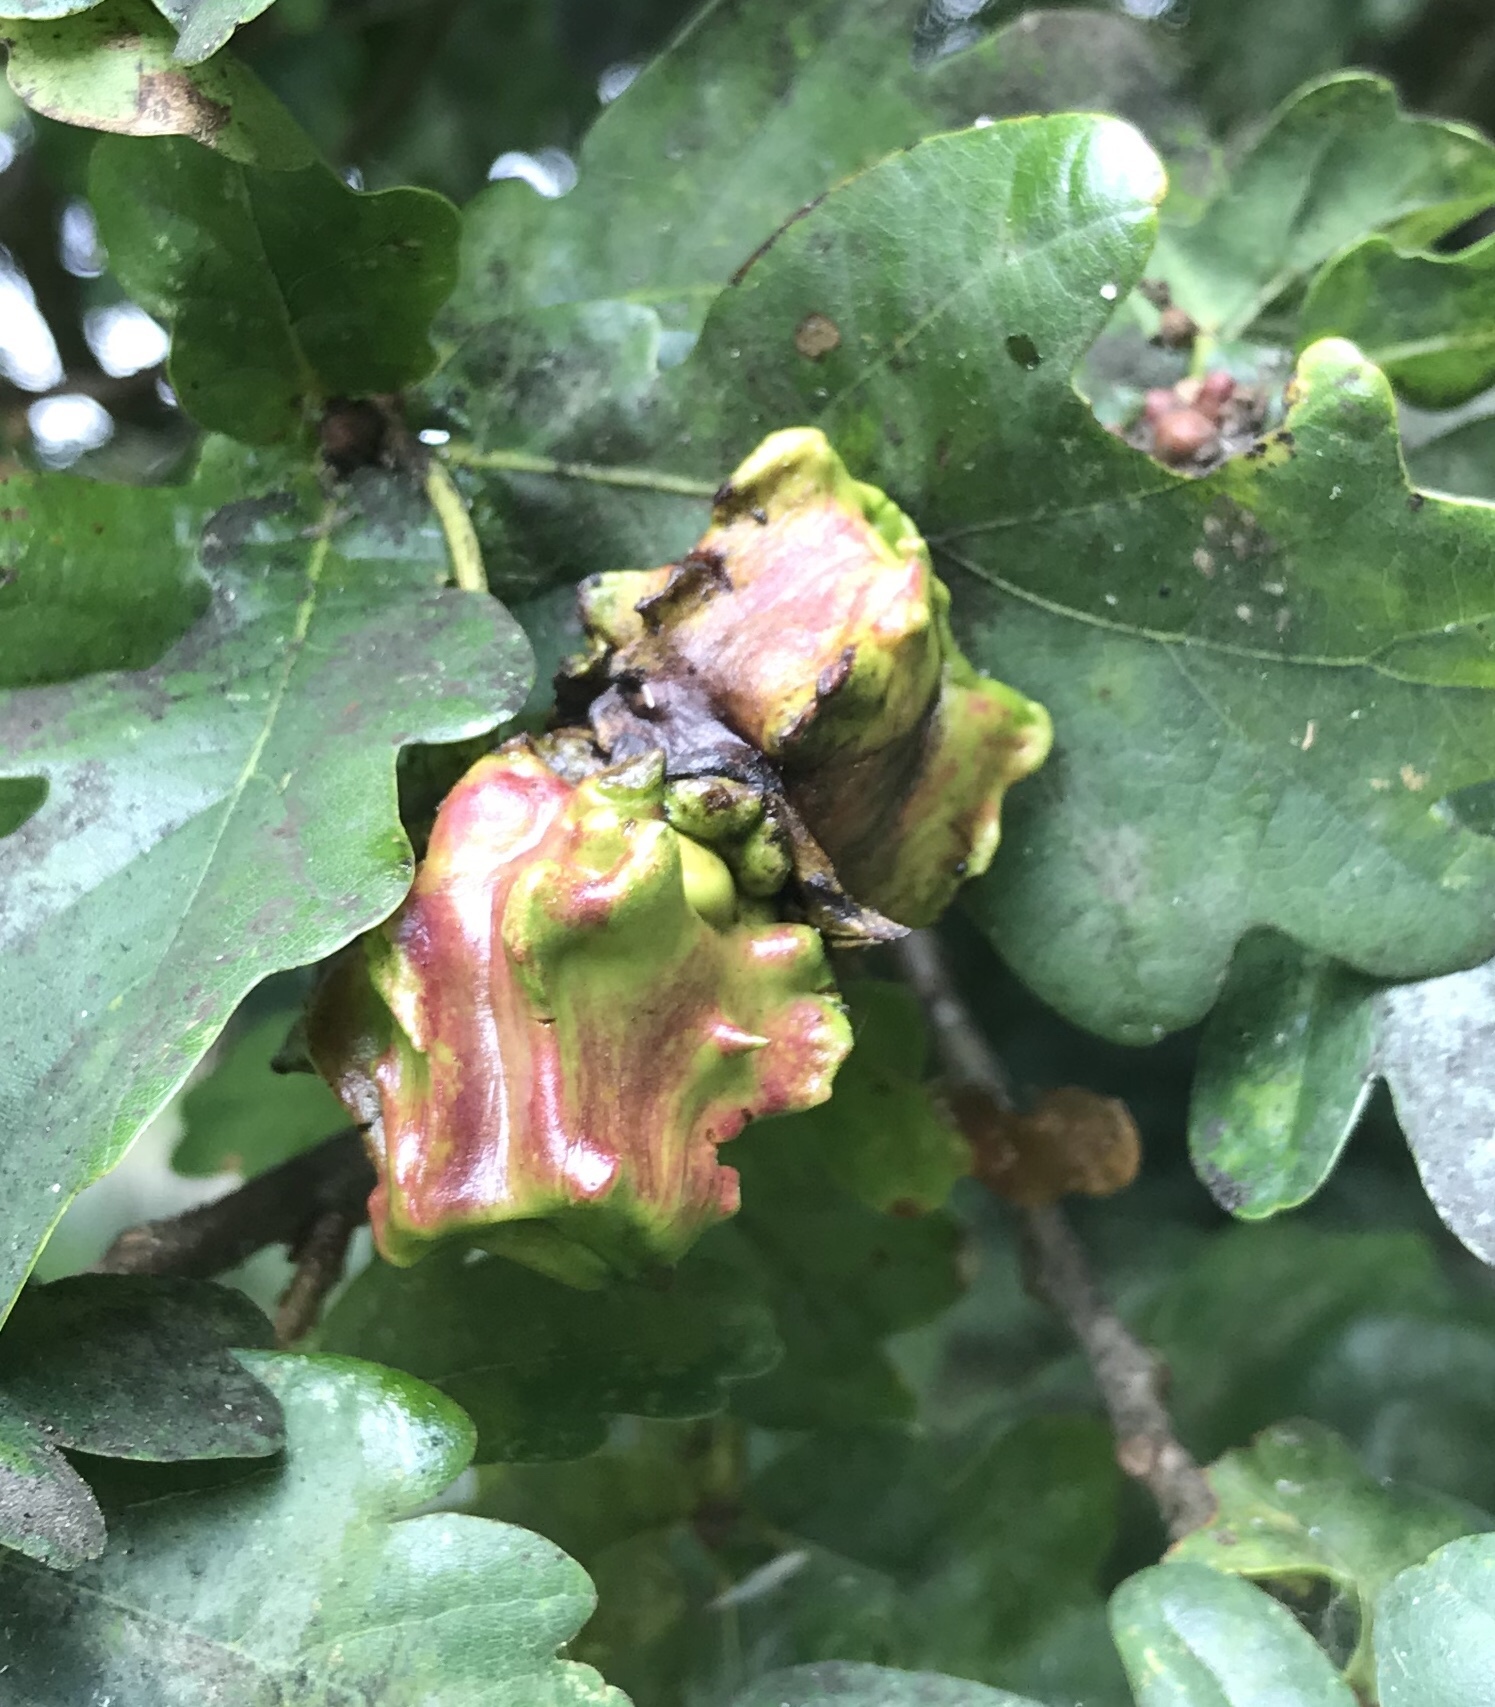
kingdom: Animalia
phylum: Arthropoda
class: Insecta
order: Hymenoptera
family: Cynipidae
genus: Andricus
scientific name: Andricus quercuscalicis
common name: Knopper gall
